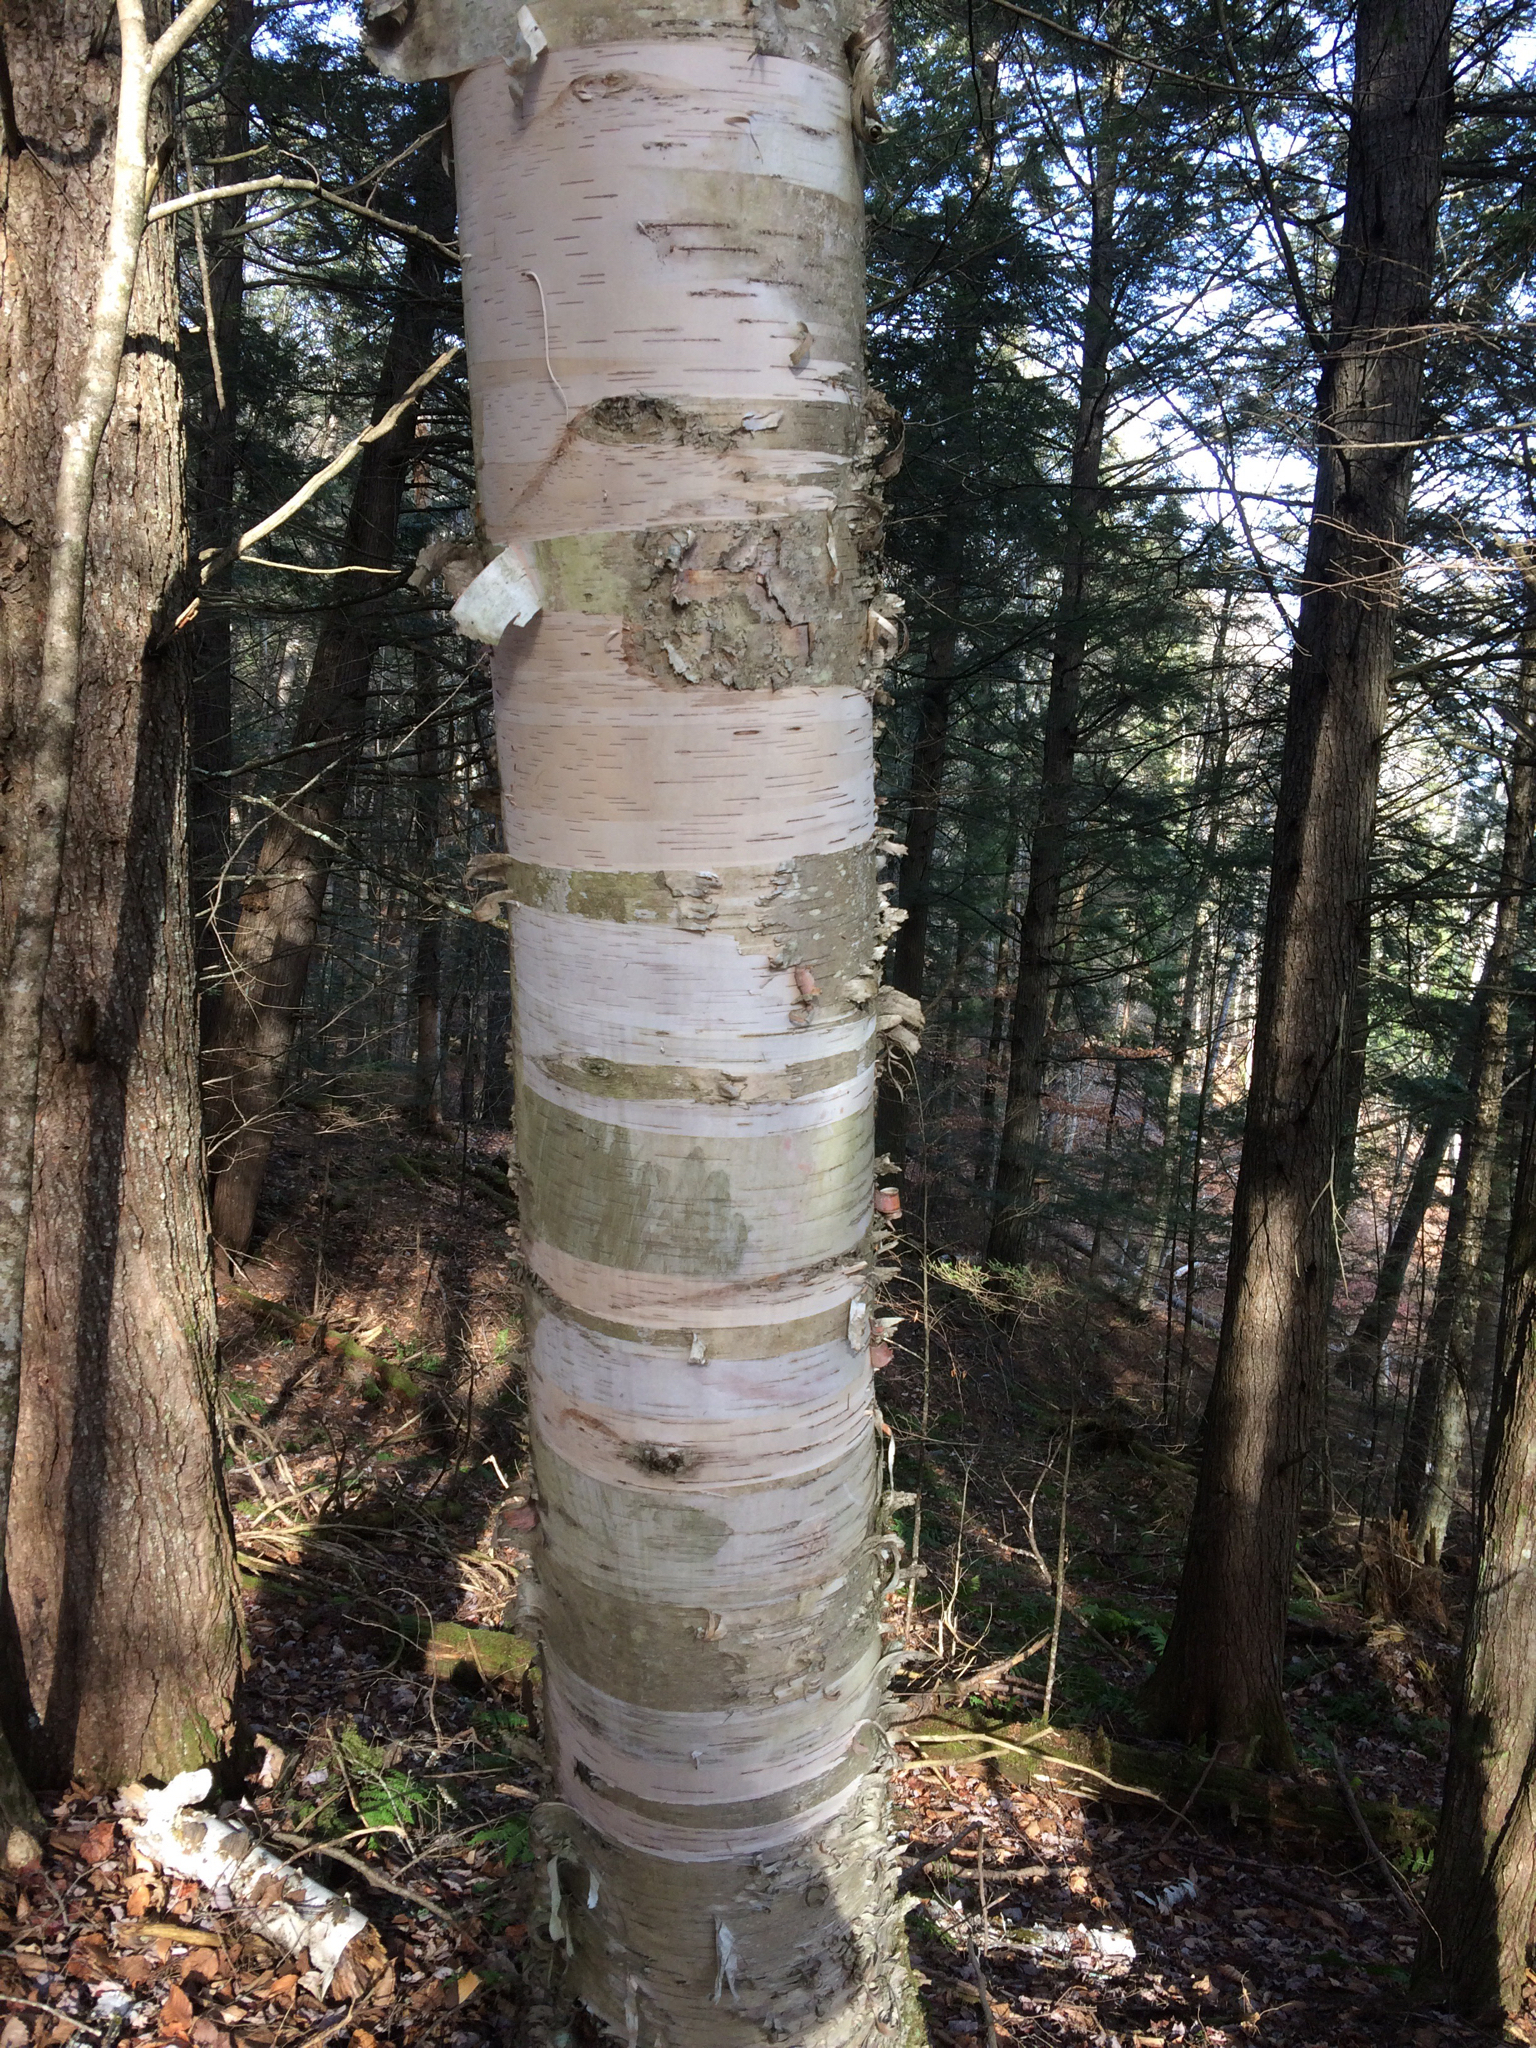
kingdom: Plantae
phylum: Tracheophyta
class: Magnoliopsida
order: Fagales
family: Betulaceae
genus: Betula
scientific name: Betula papyrifera
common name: Paper birch
